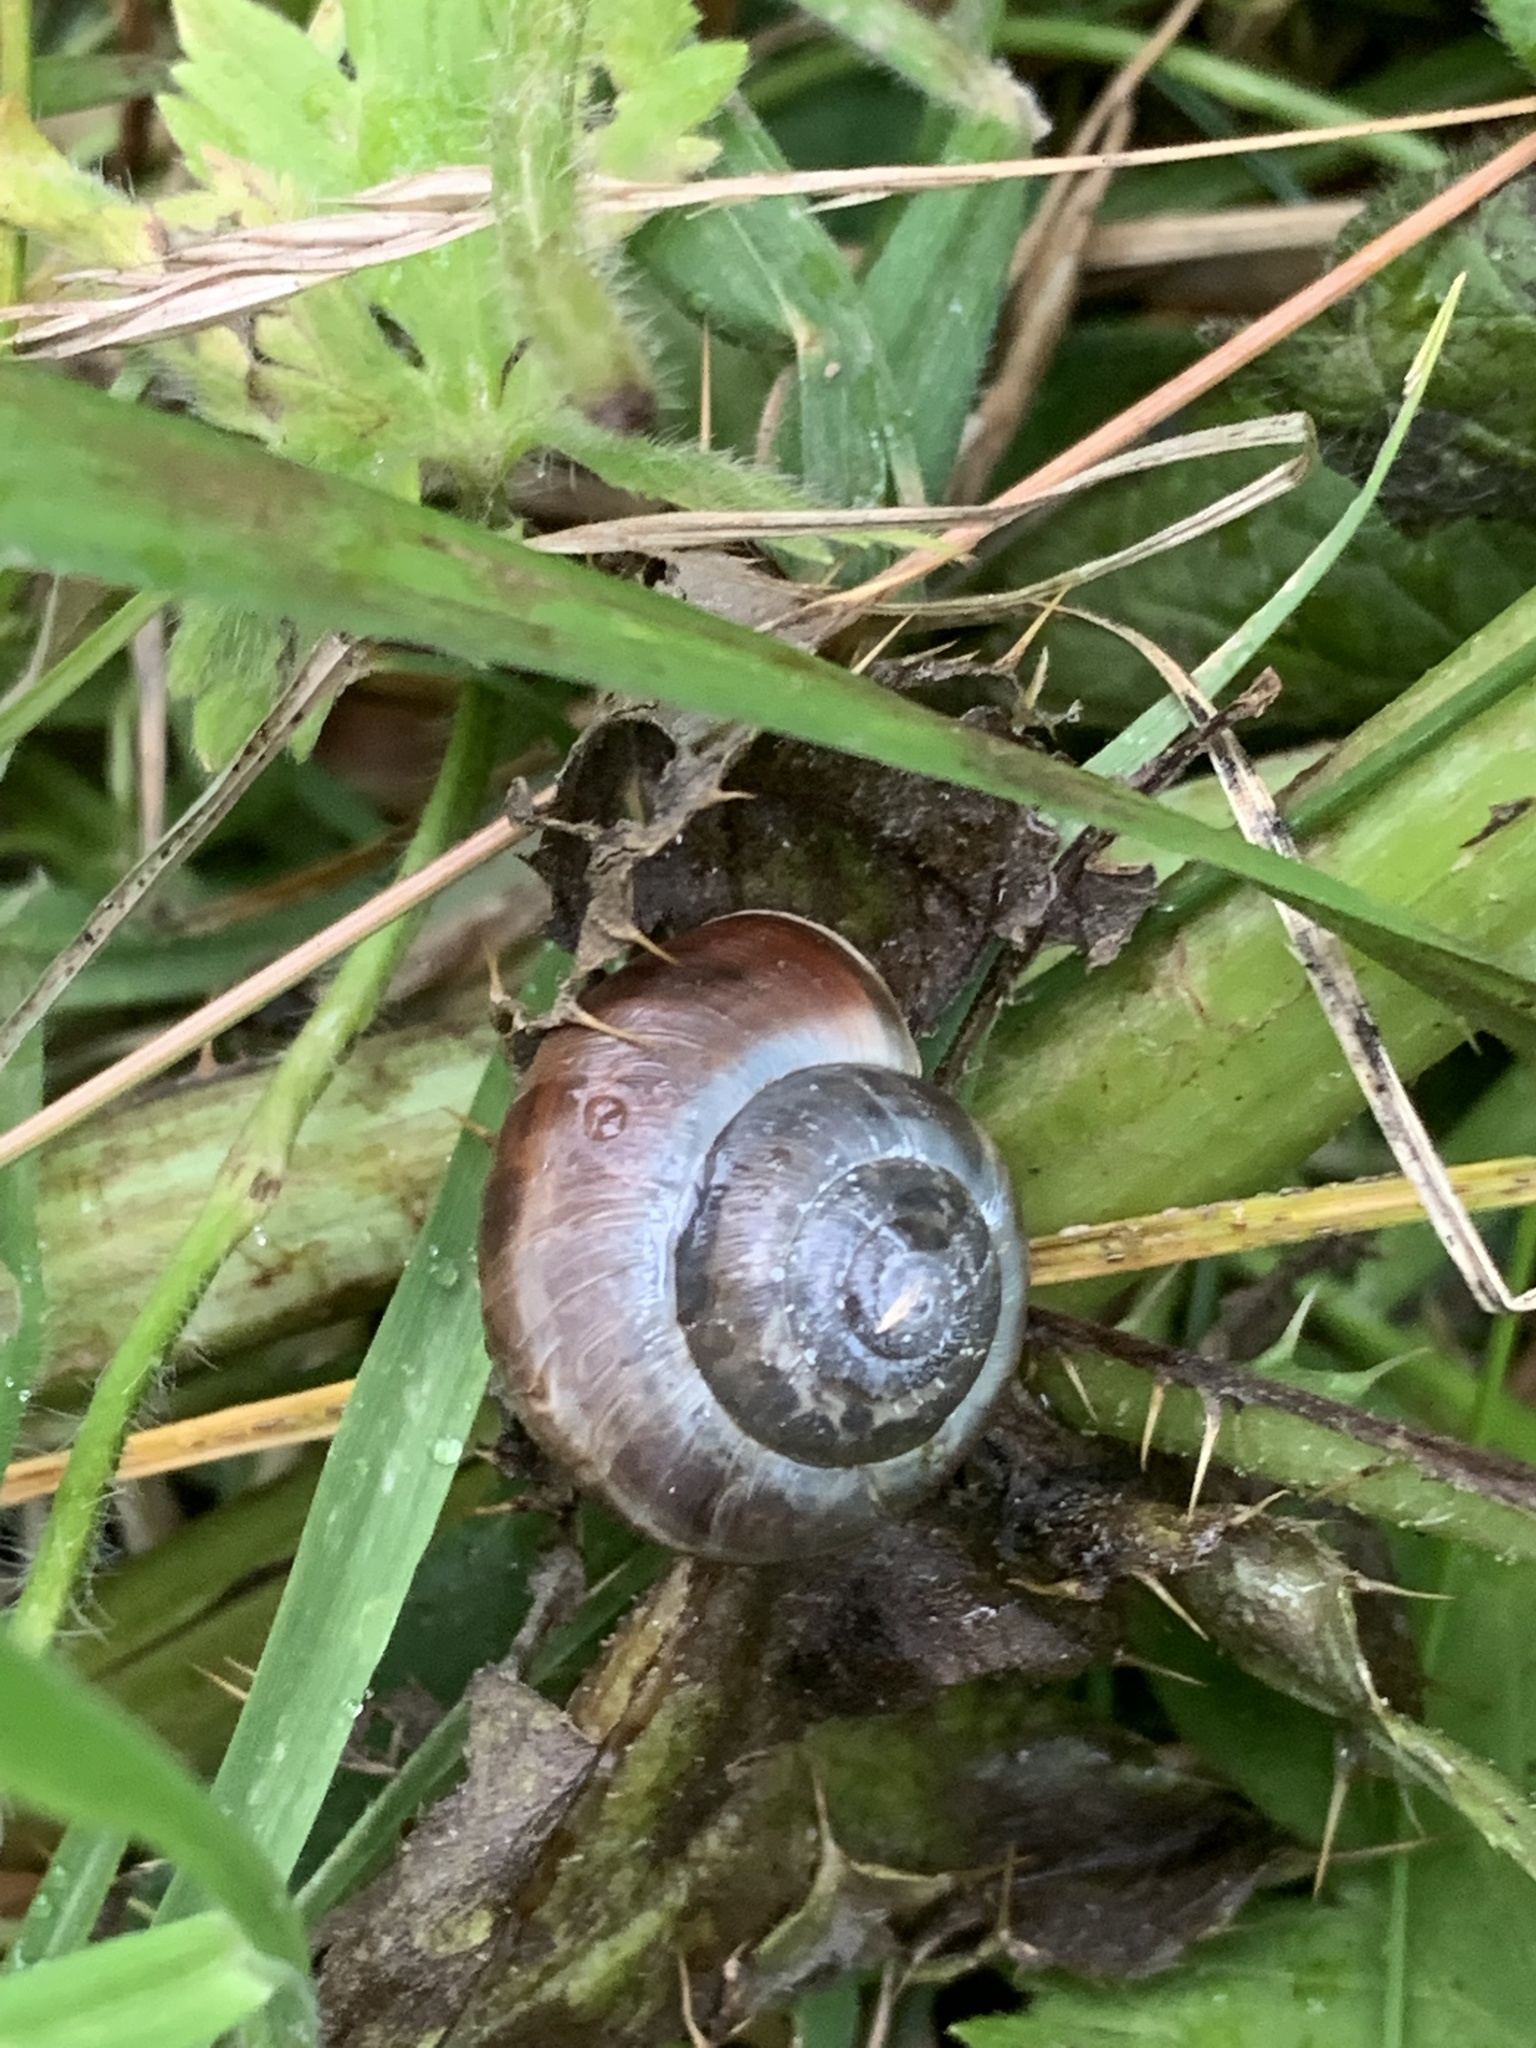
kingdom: Animalia
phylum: Mollusca
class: Gastropoda
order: Stylommatophora
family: Hygromiidae
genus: Monacha
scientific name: Monacha cantiana
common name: Kentish snail
